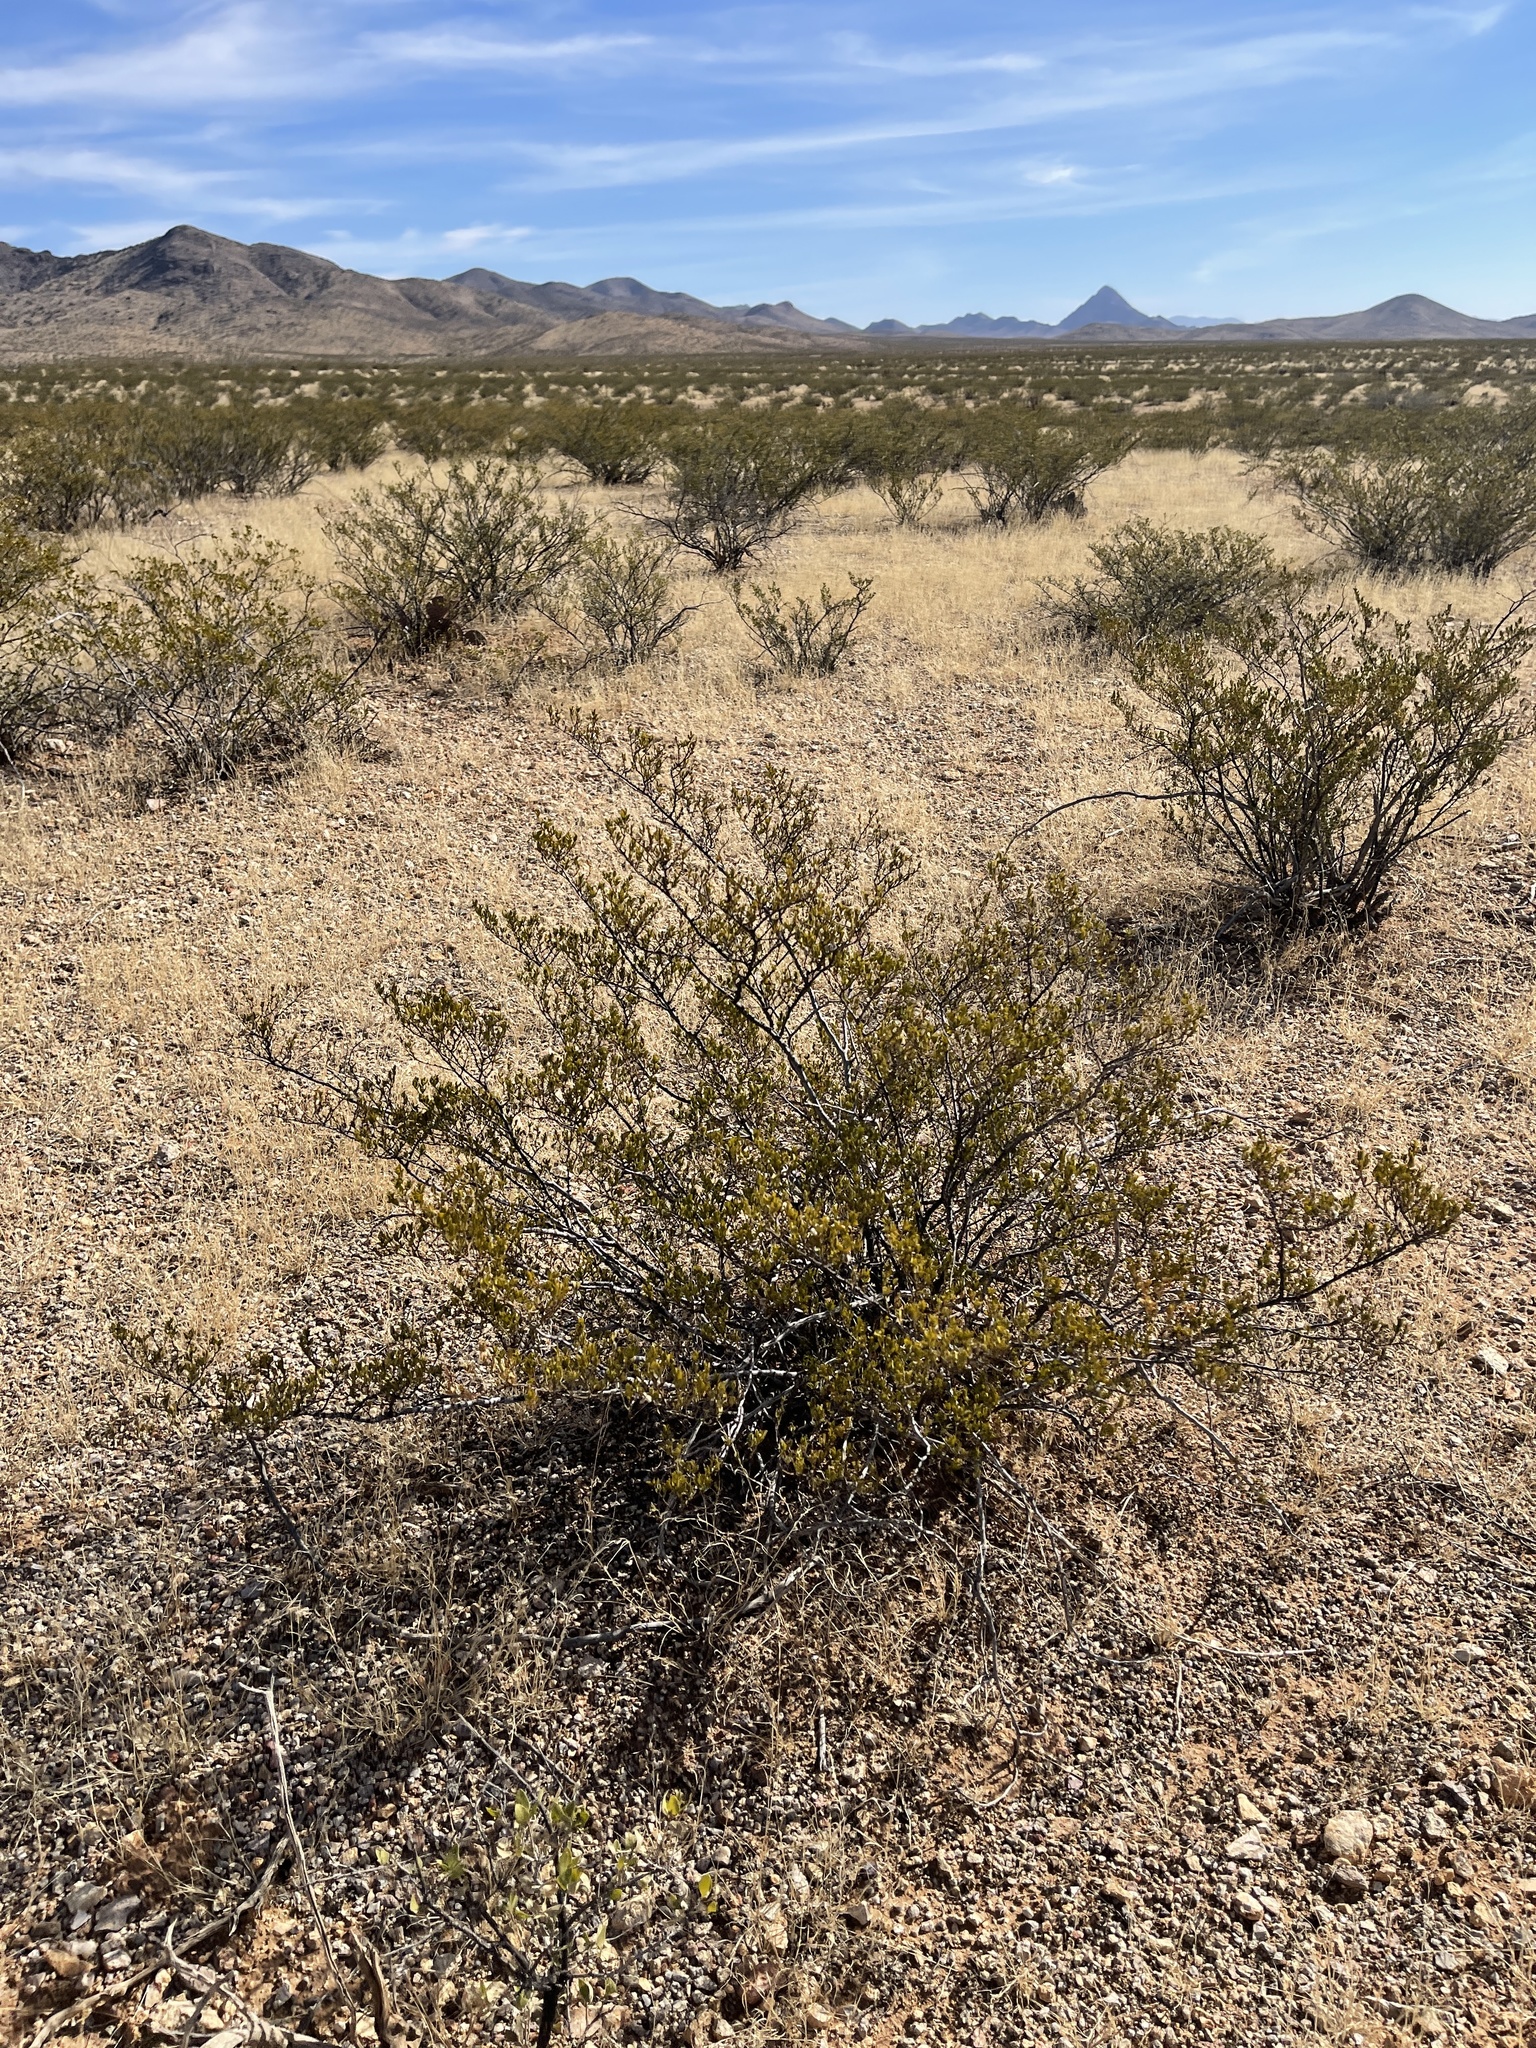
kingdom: Plantae
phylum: Tracheophyta
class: Magnoliopsida
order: Zygophyllales
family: Zygophyllaceae
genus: Larrea
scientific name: Larrea tridentata
